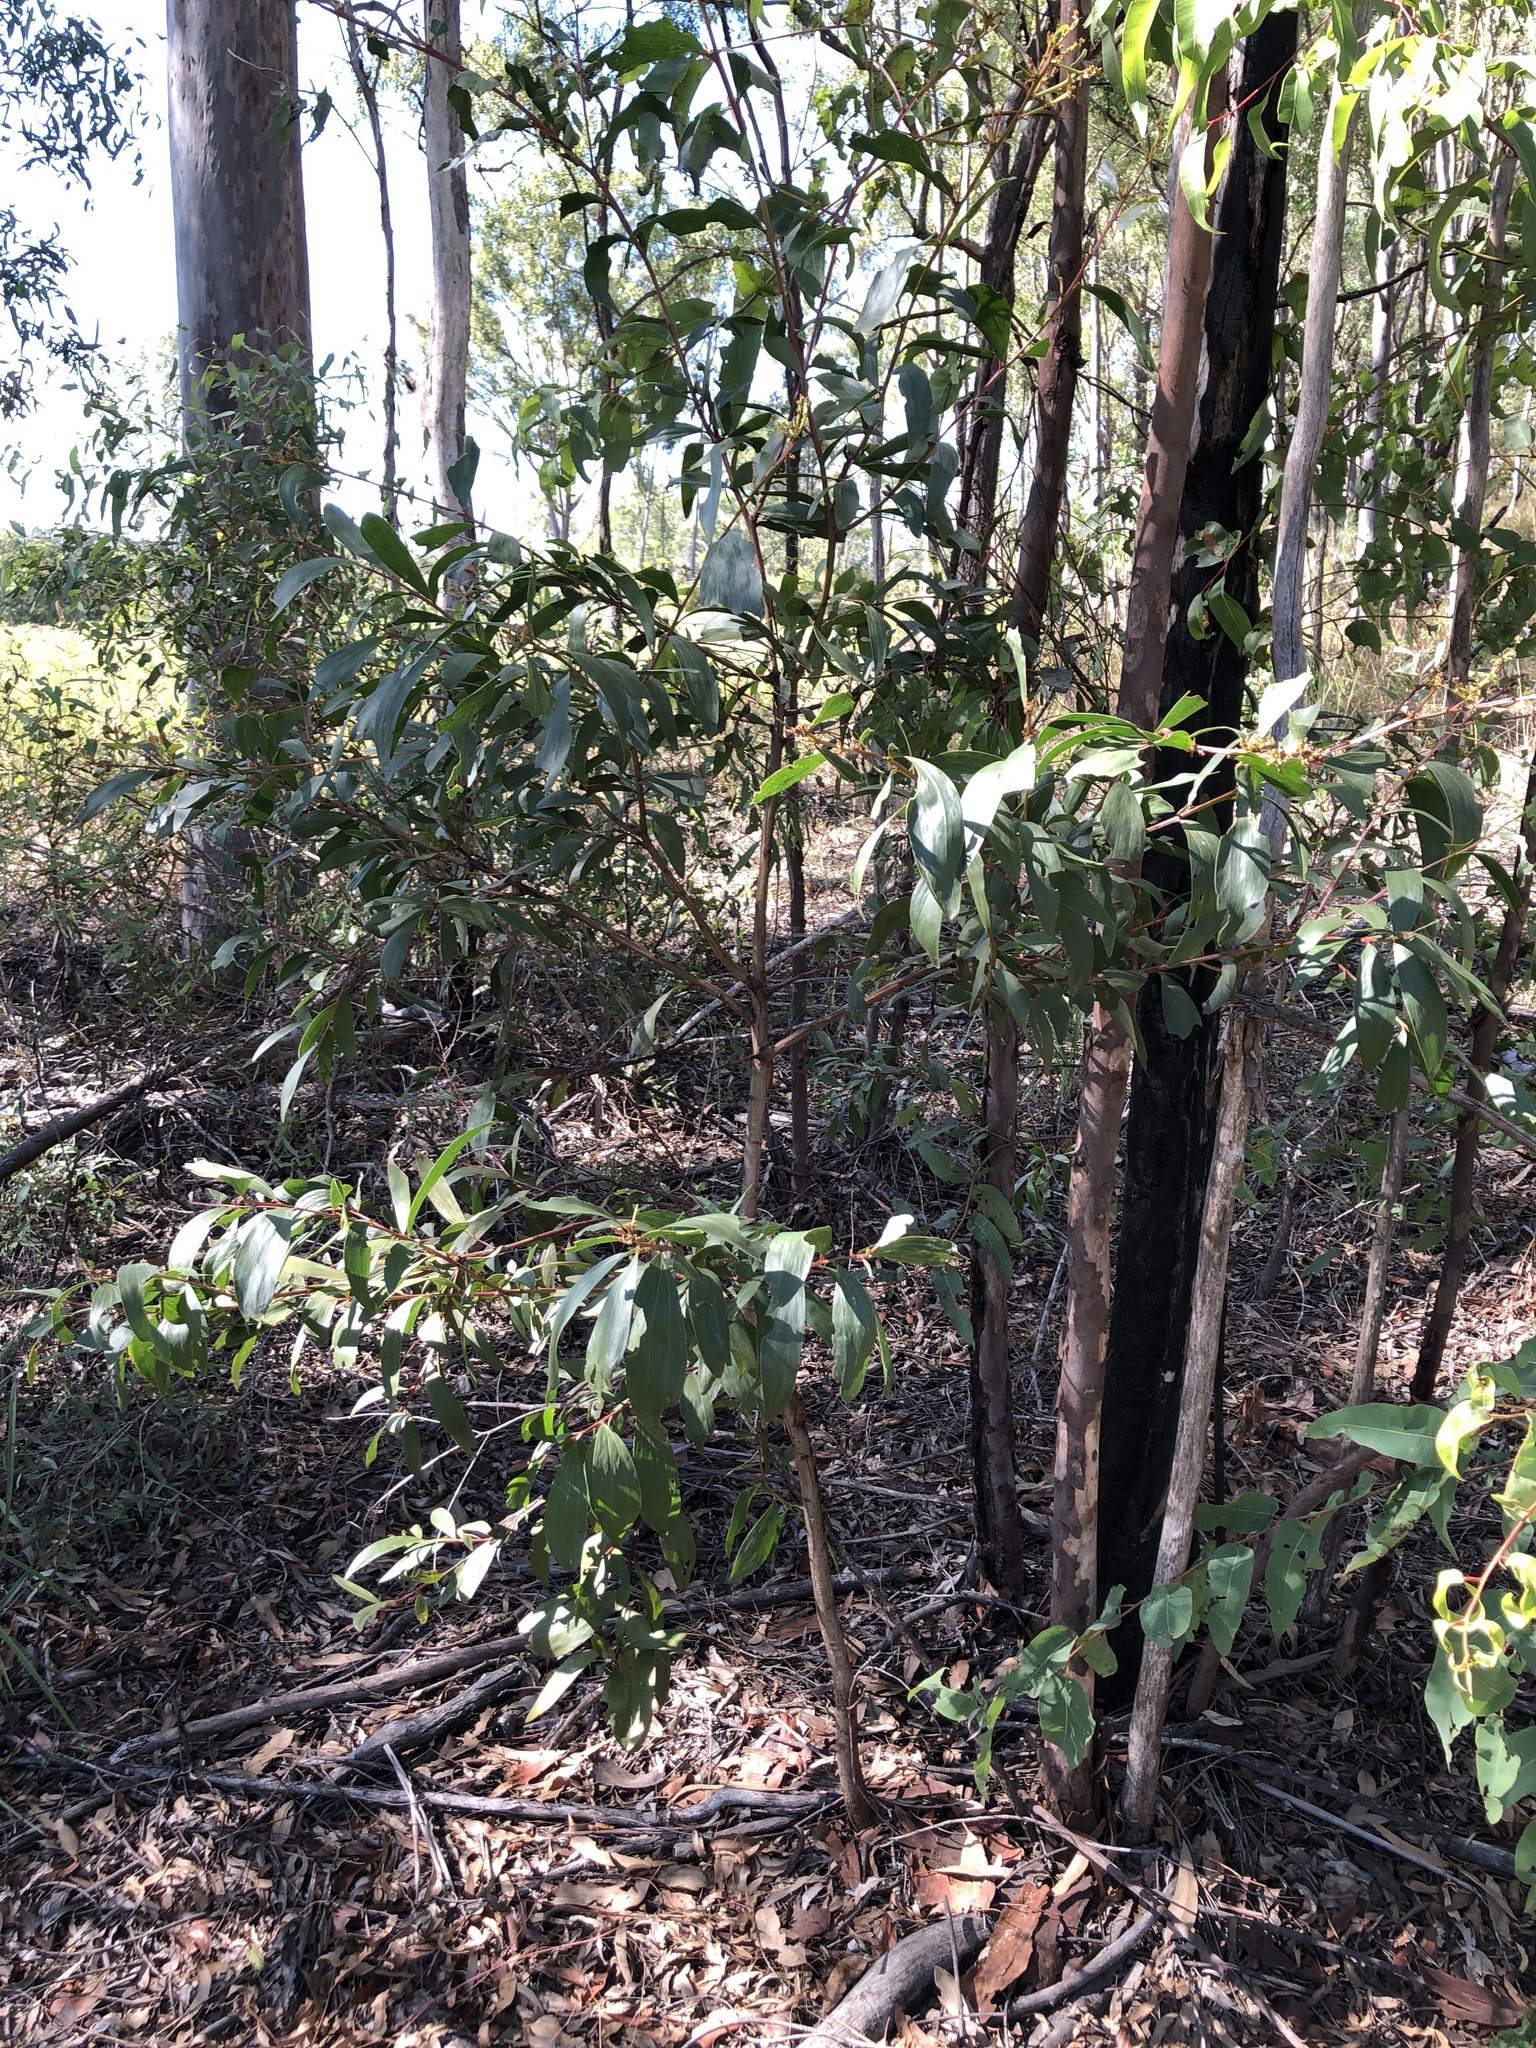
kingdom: Plantae
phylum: Tracheophyta
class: Magnoliopsida
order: Fabales
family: Fabaceae
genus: Acacia
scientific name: Acacia leiocalyx
